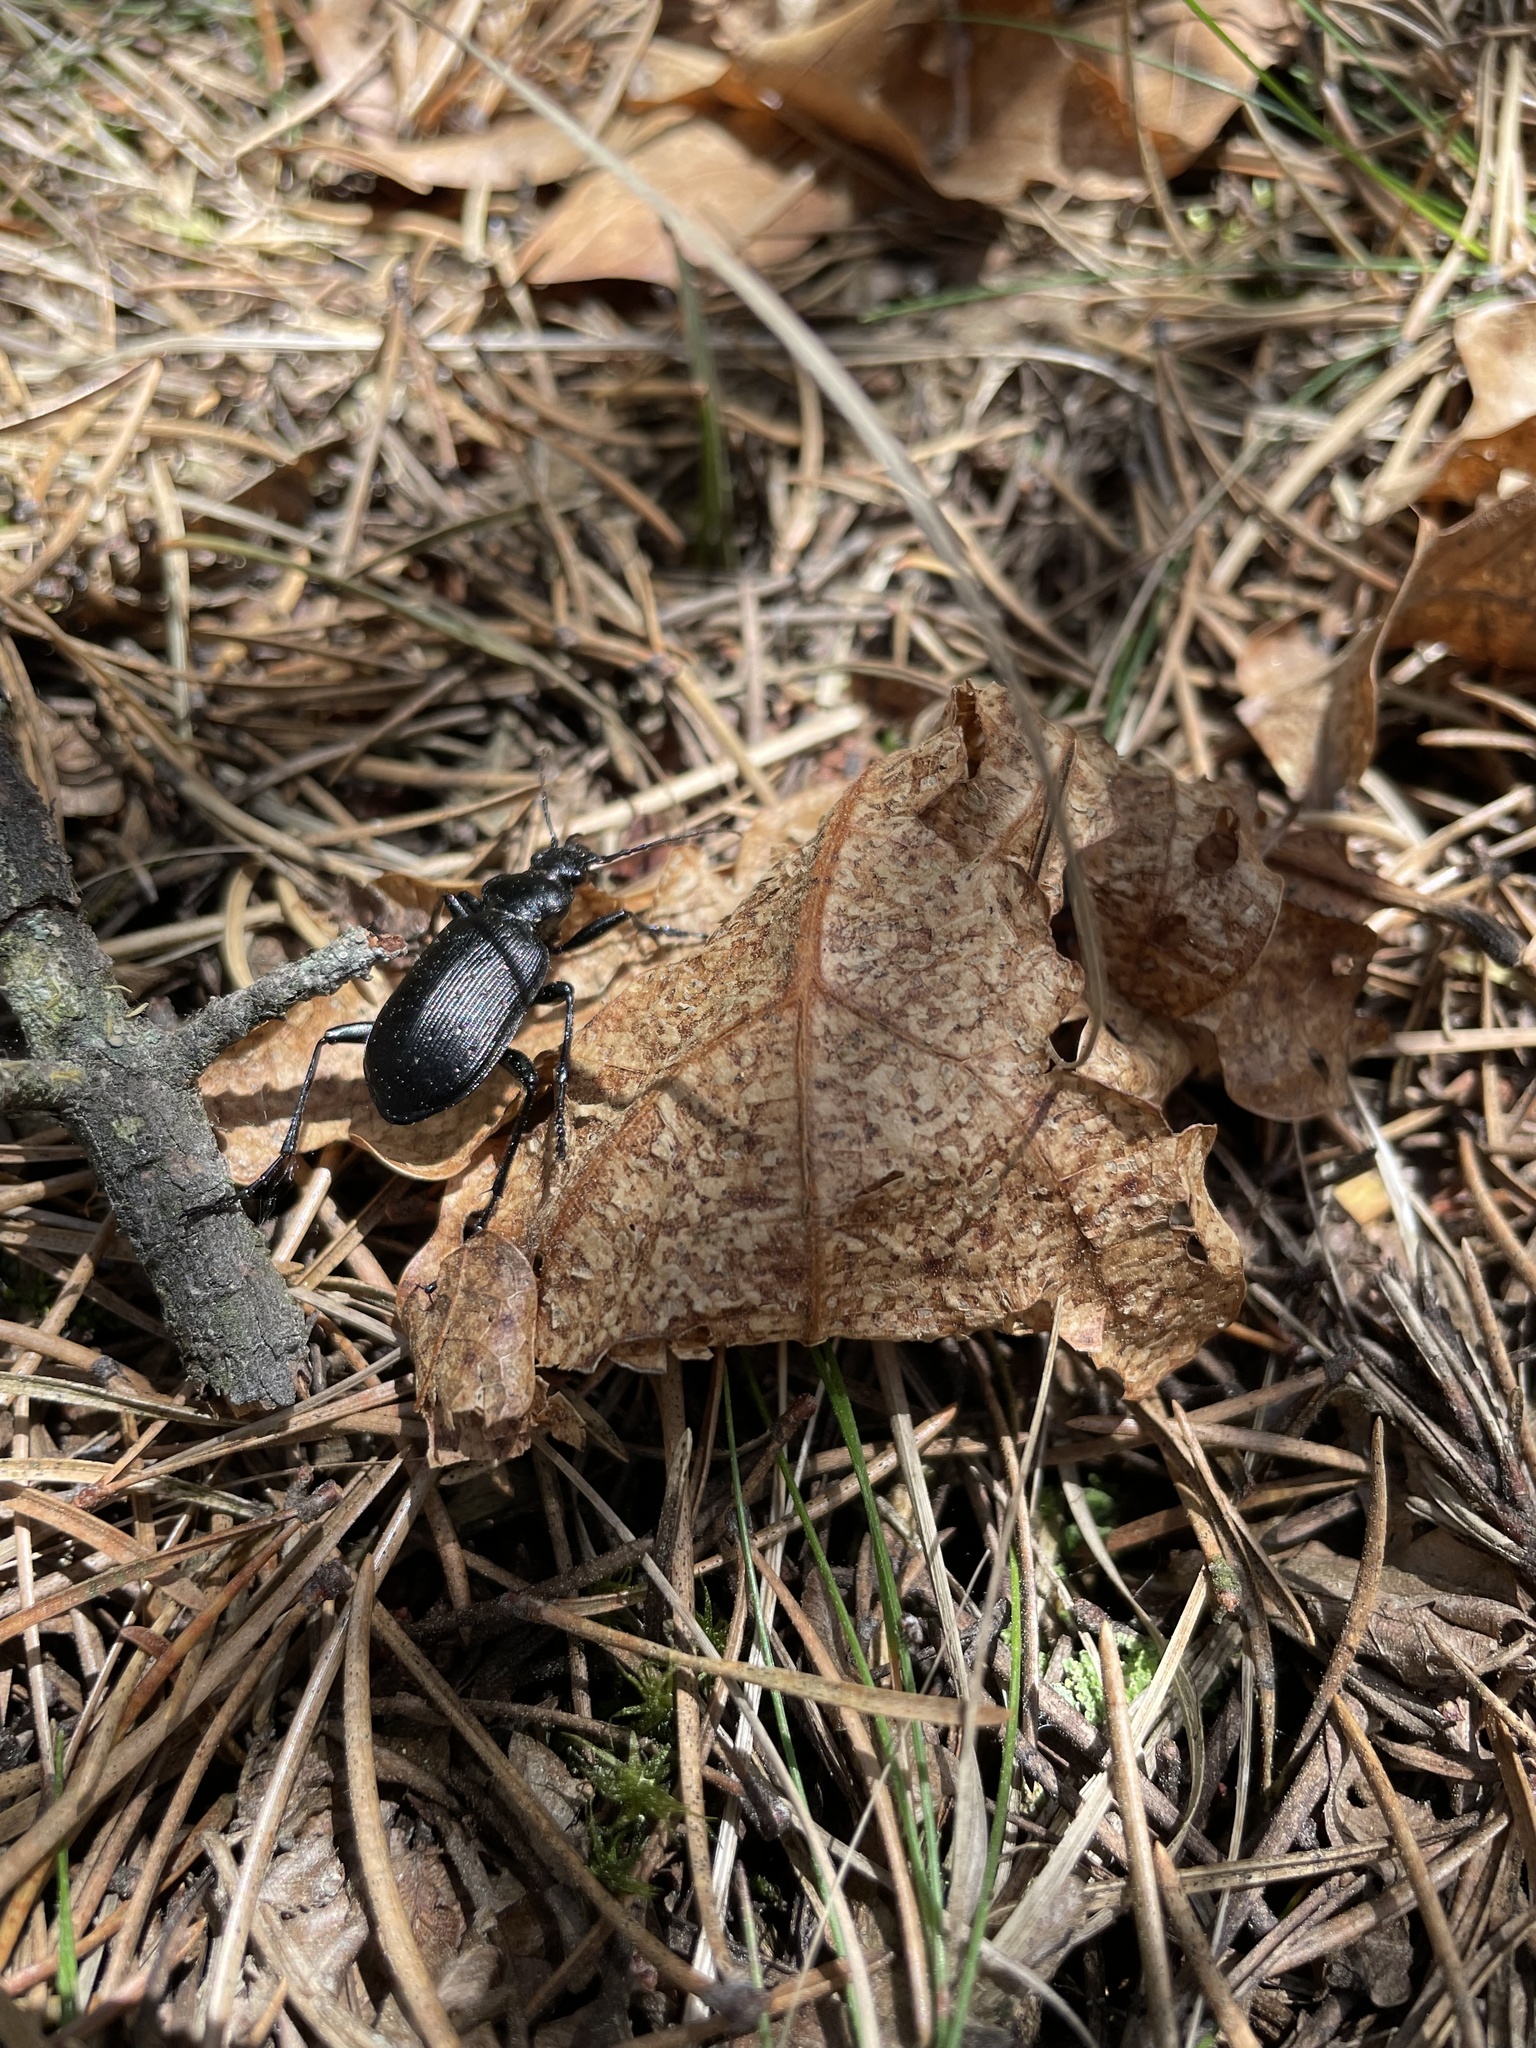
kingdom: Animalia
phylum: Arthropoda
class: Insecta
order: Coleoptera
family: Carabidae
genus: Calosoma
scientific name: Calosoma frigidum
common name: Cold-country caterpillar hunter
